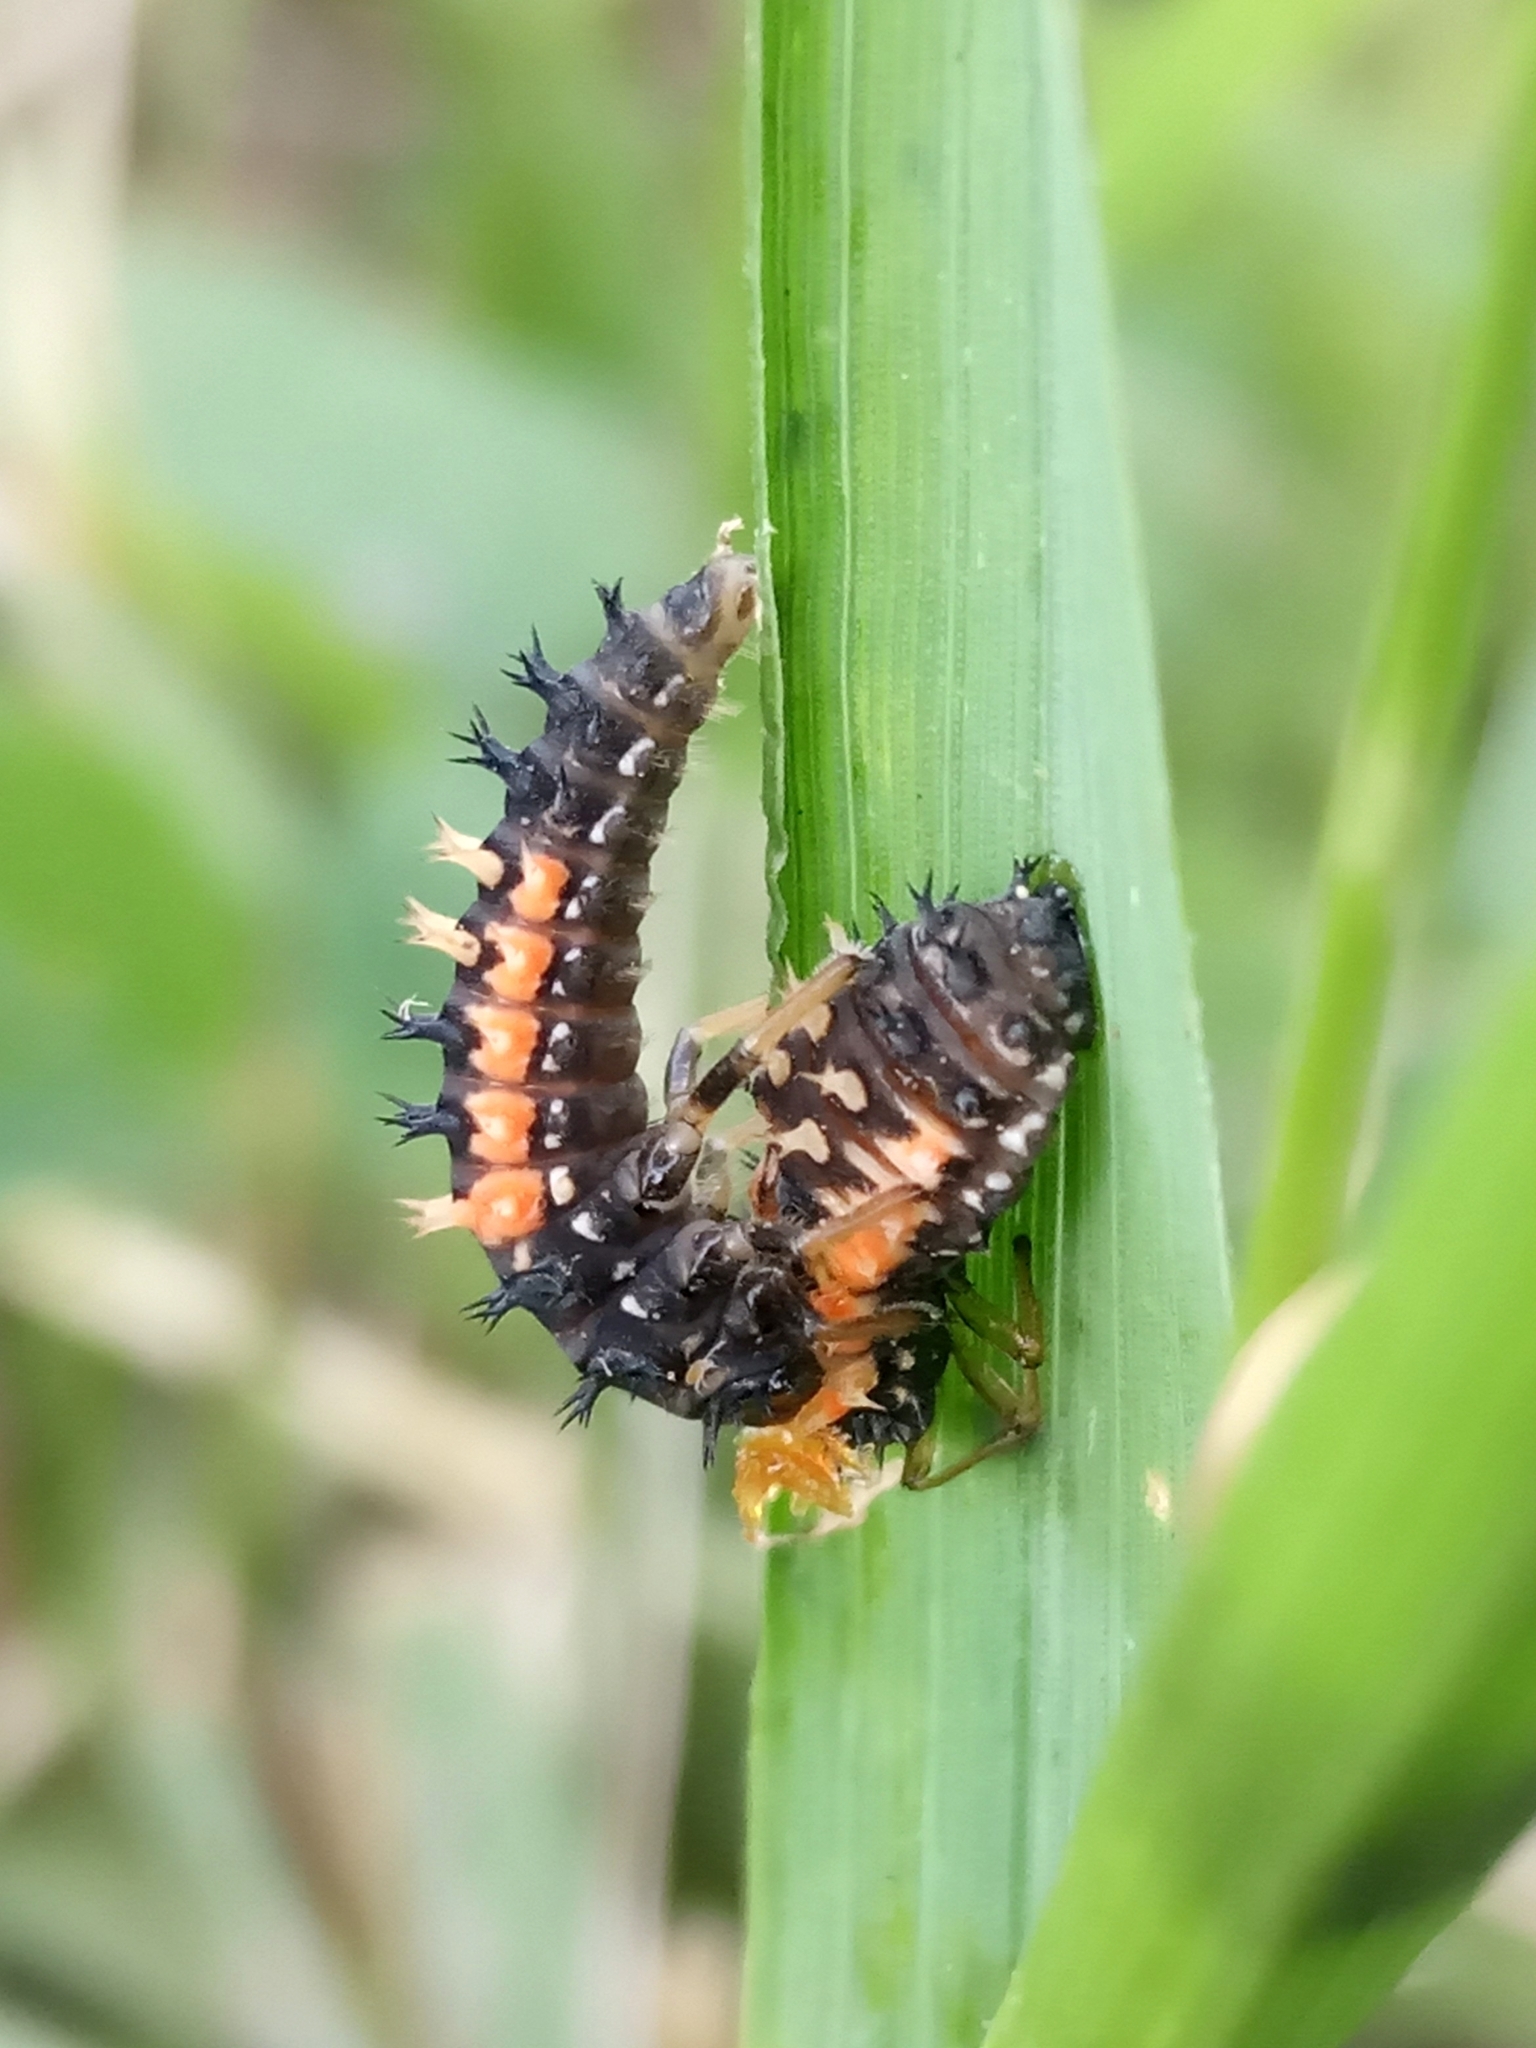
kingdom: Animalia
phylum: Arthropoda
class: Insecta
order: Coleoptera
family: Coccinellidae
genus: Harmonia
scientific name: Harmonia axyridis
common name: Harlequin ladybird
